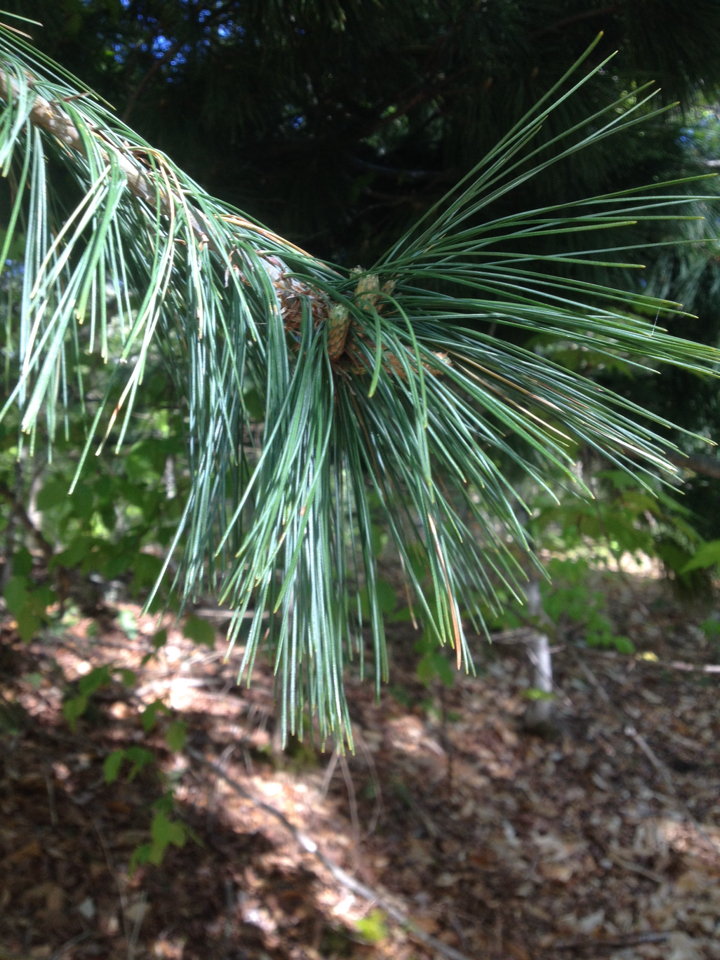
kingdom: Plantae
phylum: Tracheophyta
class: Pinopsida
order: Pinales
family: Pinaceae
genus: Pinus
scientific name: Pinus strobus
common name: Weymouth pine
